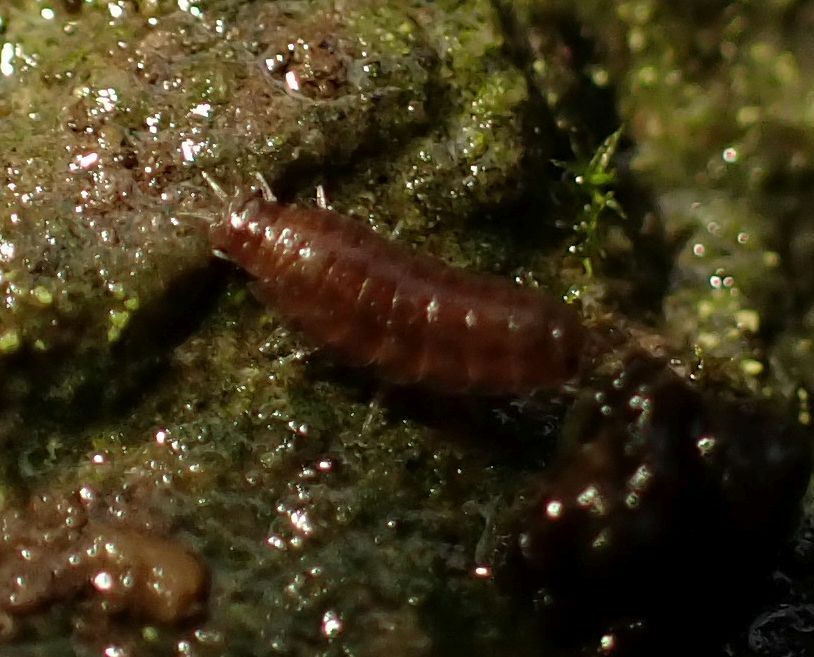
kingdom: Animalia
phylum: Arthropoda
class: Malacostraca
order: Isopoda
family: Trichoniscidae
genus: Trichoniscus
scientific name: Trichoniscus
